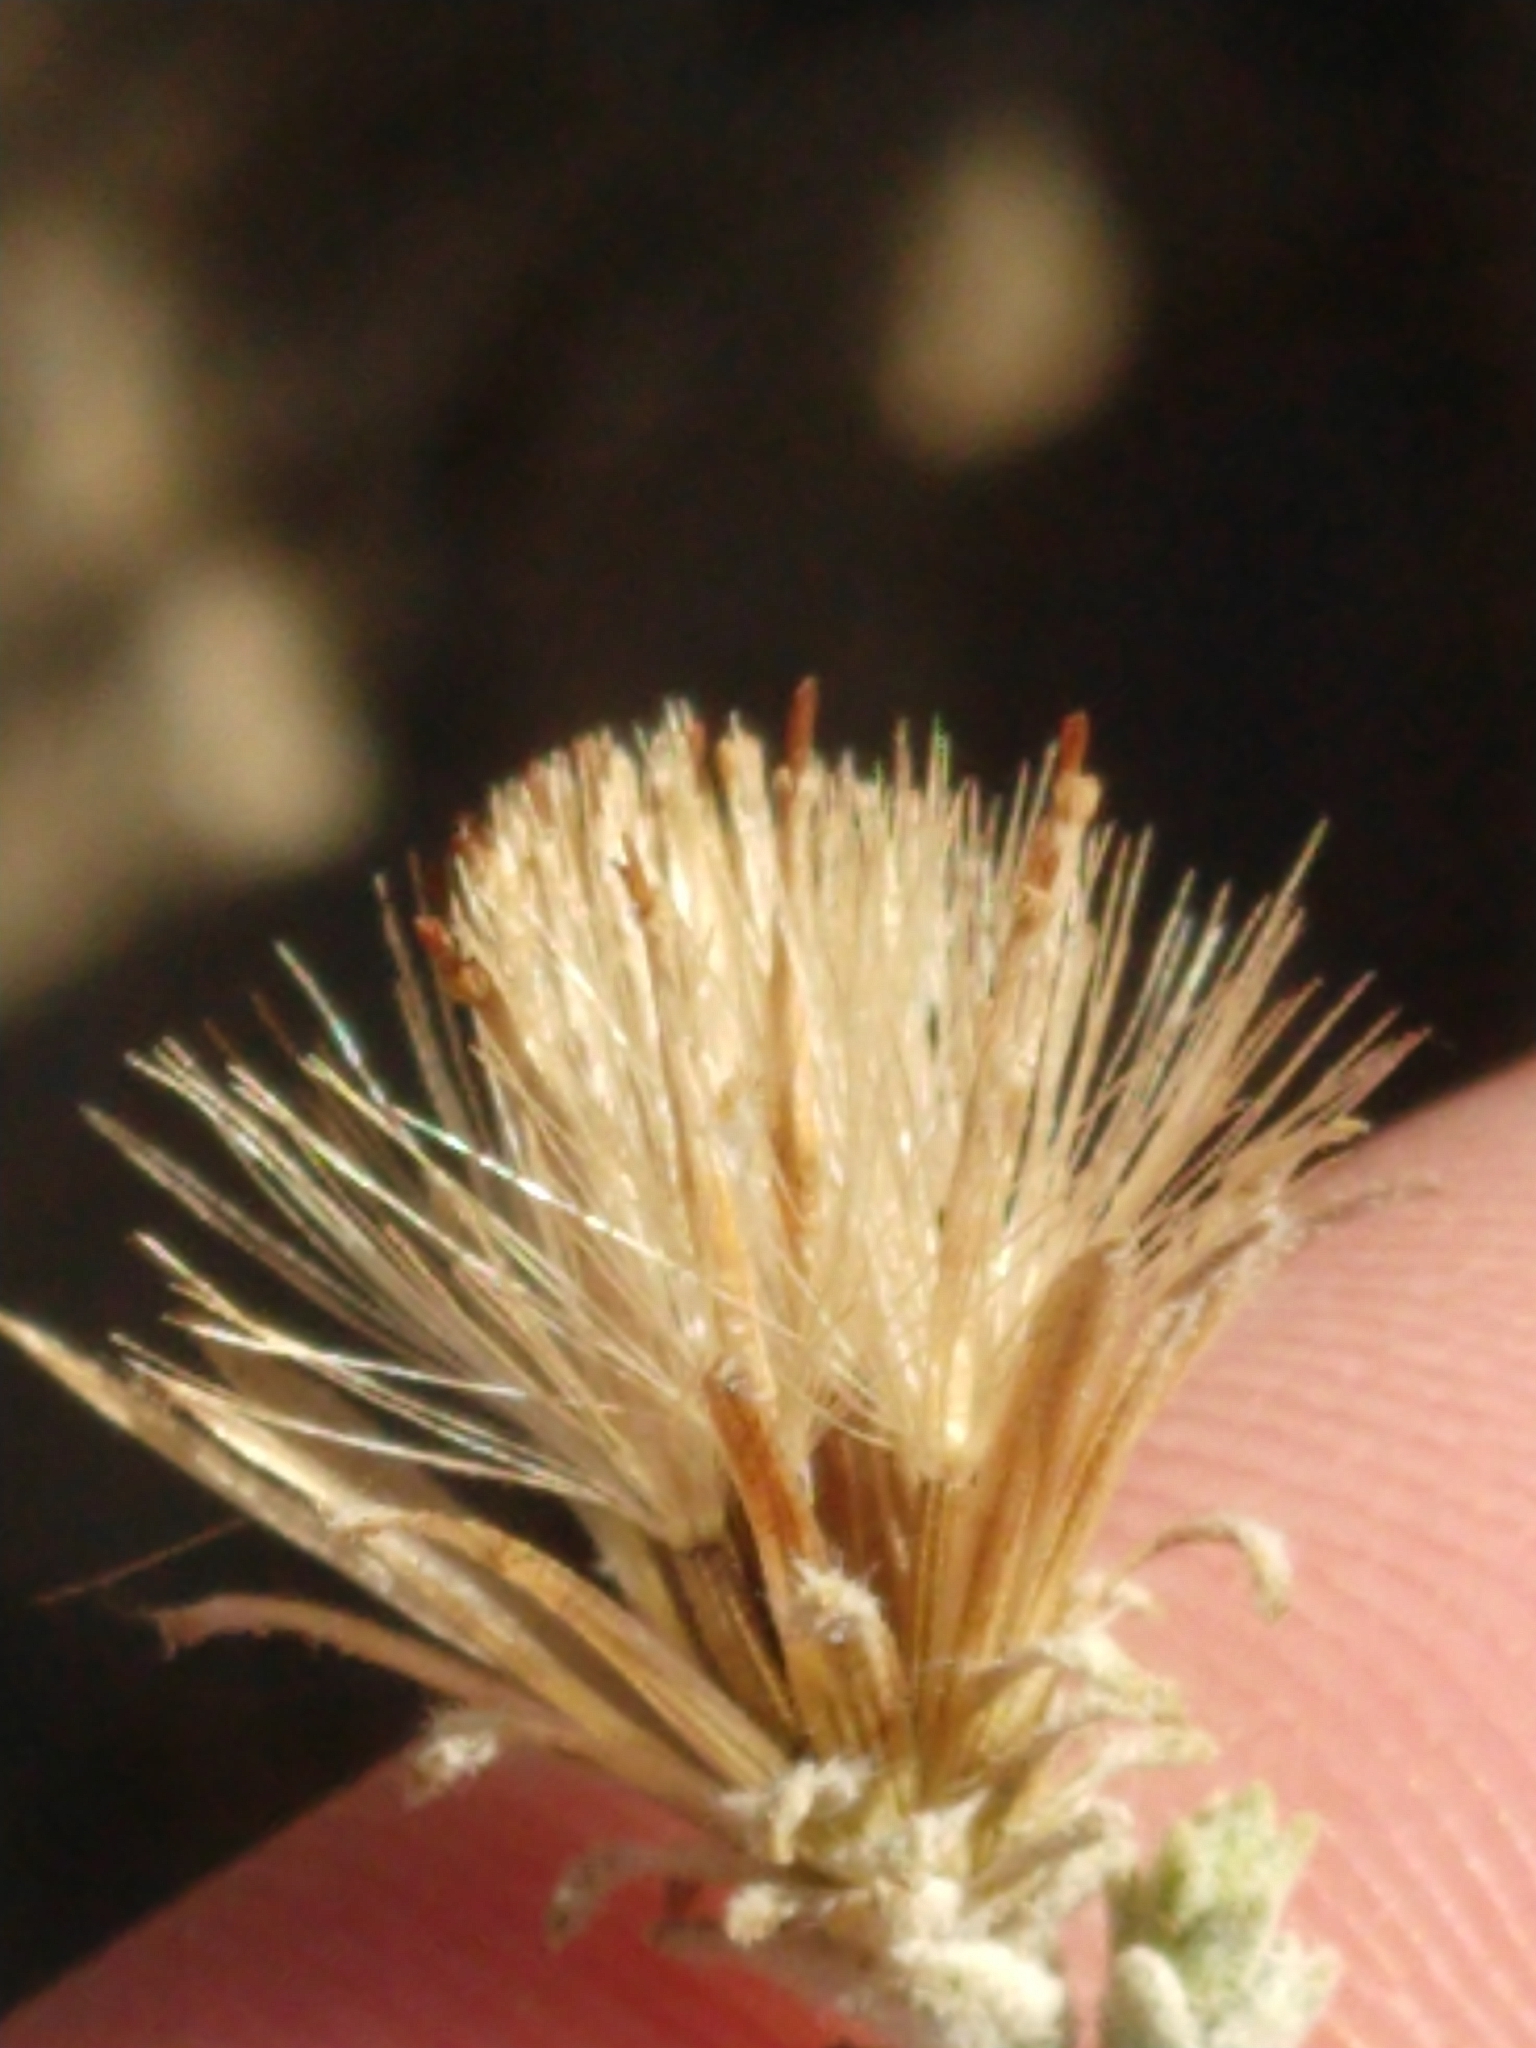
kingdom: Plantae
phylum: Tracheophyta
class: Magnoliopsida
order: Asterales
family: Asteraceae
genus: Brickellia
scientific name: Brickellia nevinii
